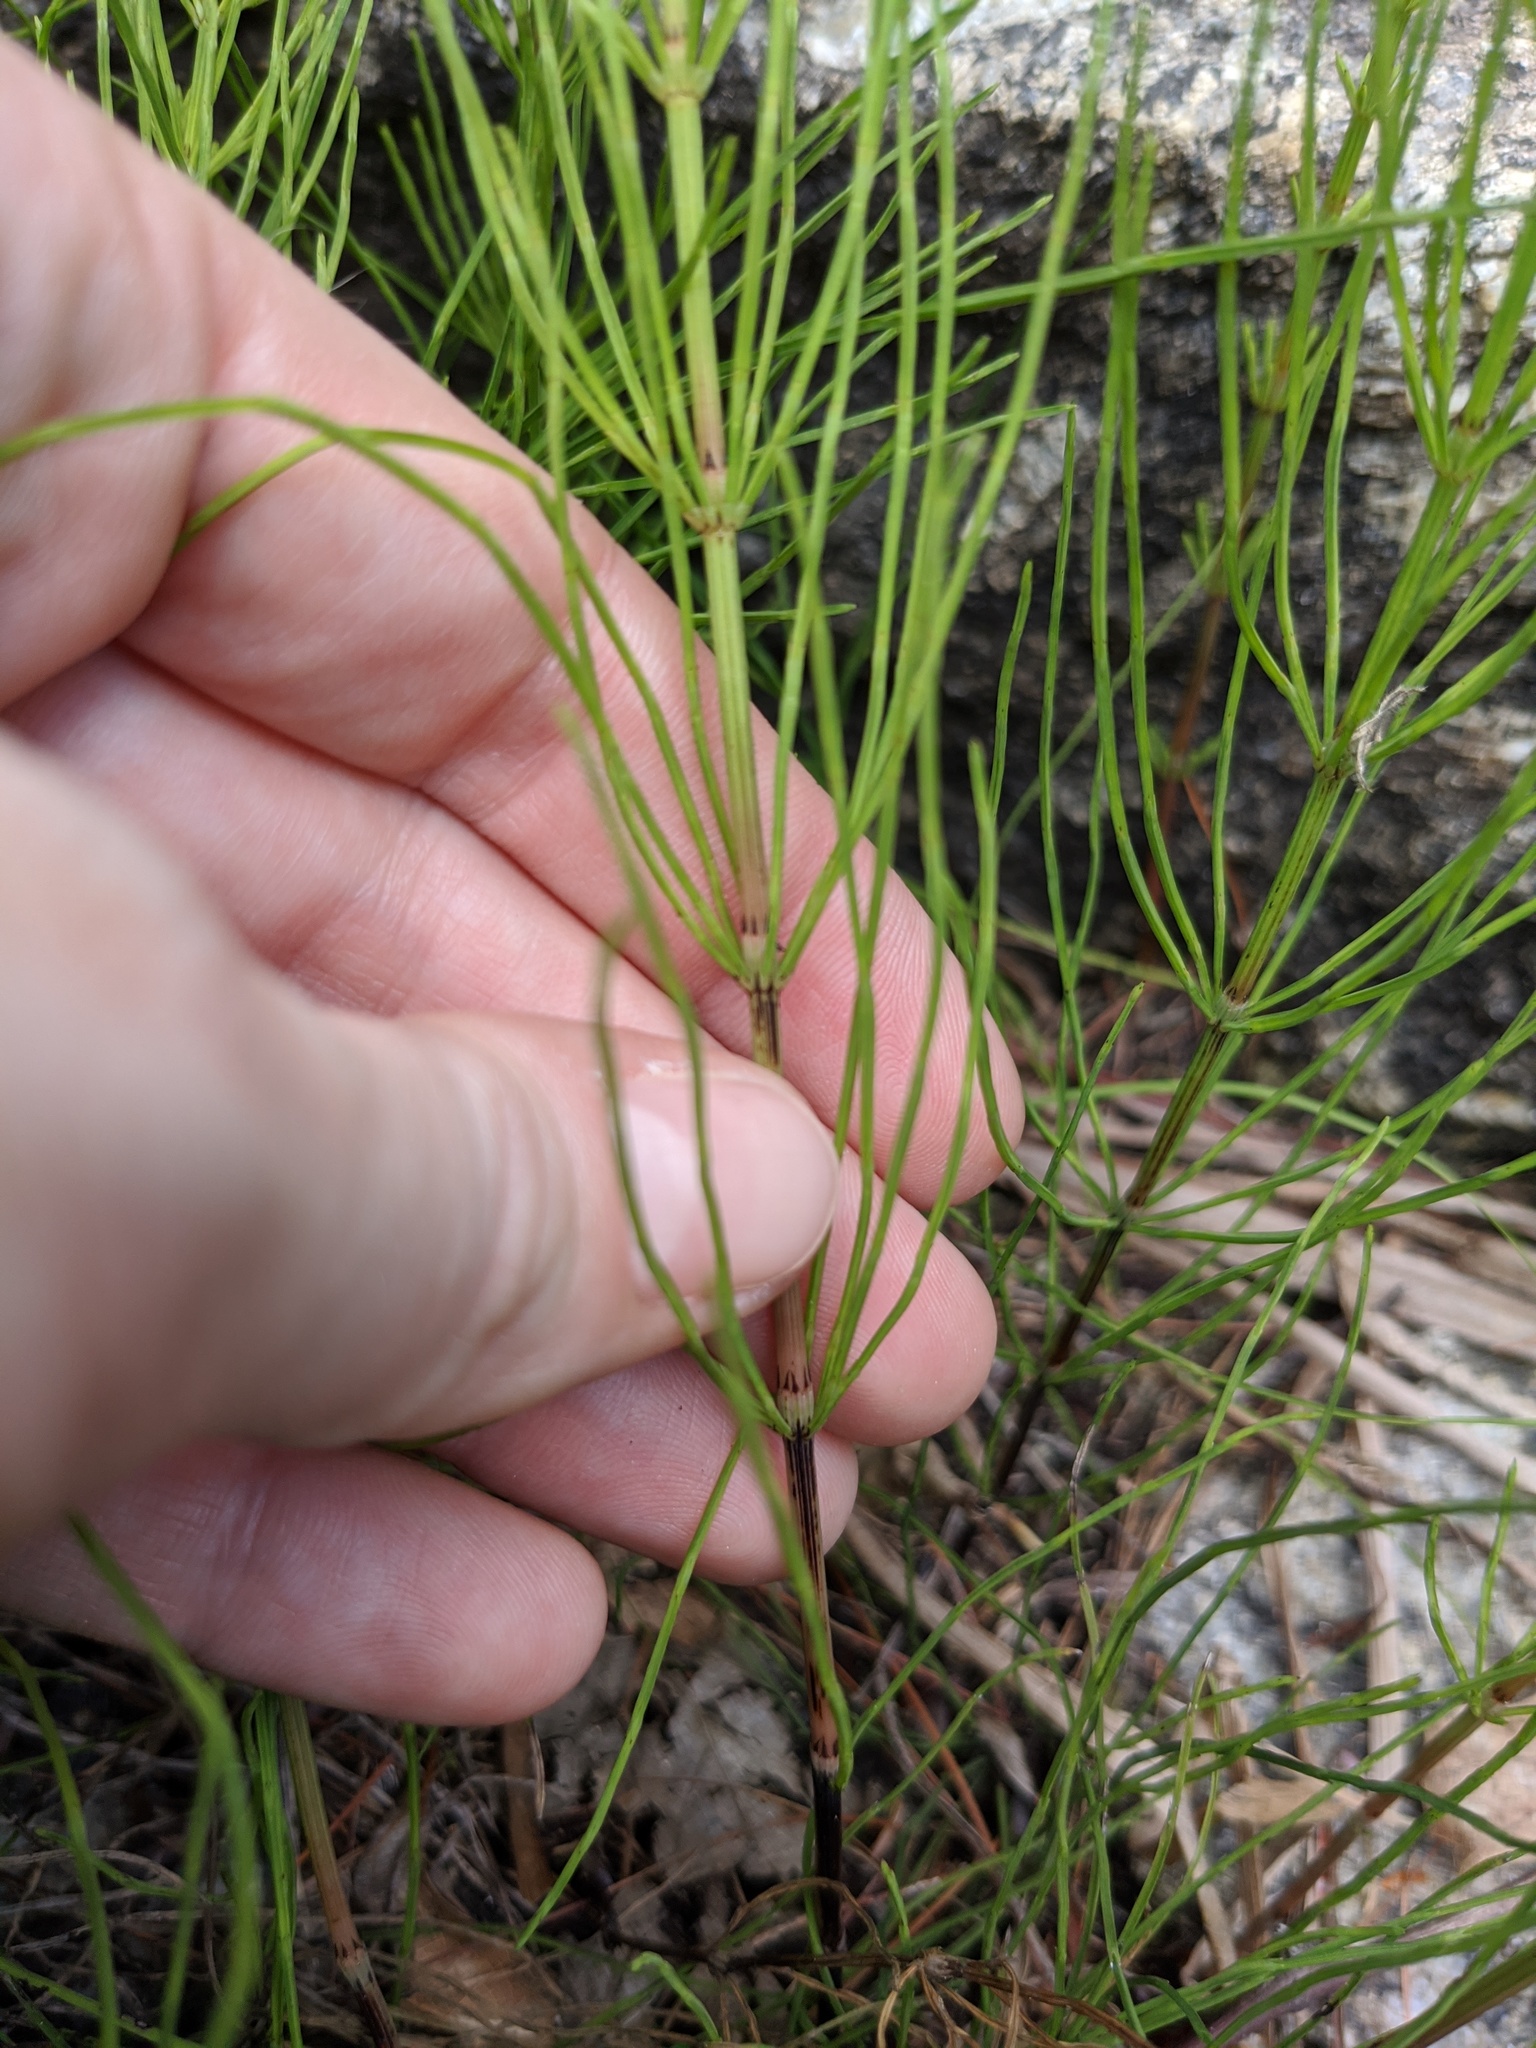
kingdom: Plantae
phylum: Tracheophyta
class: Polypodiopsida
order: Equisetales
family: Equisetaceae
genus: Equisetum
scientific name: Equisetum arvense
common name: Field horsetail
